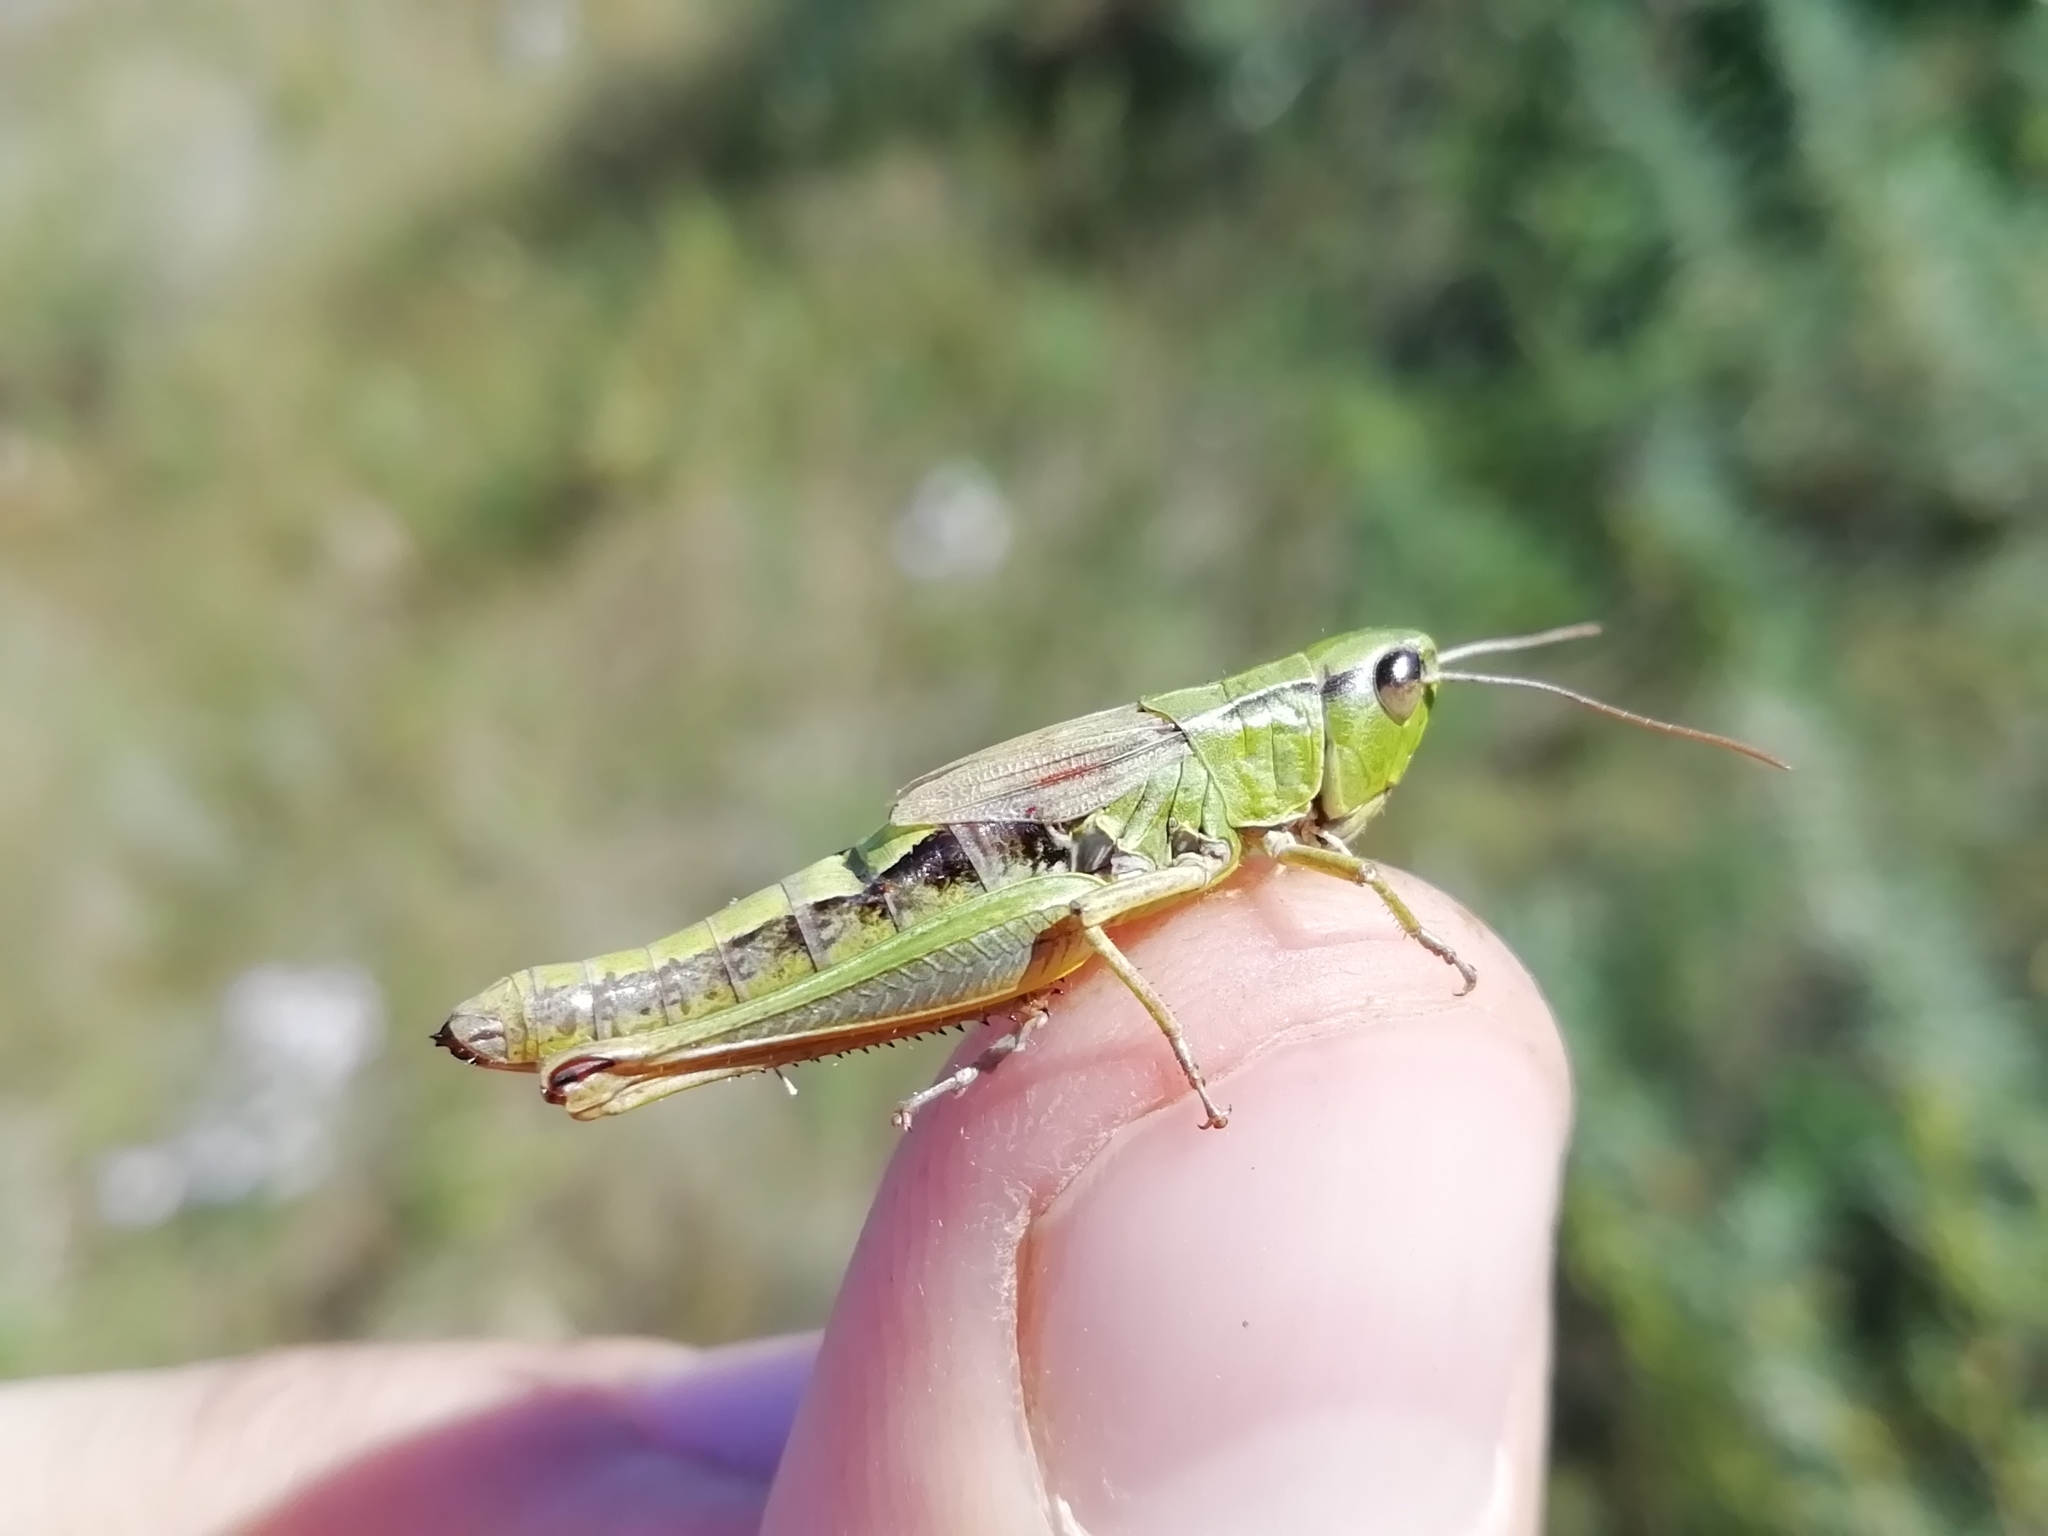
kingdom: Animalia
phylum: Arthropoda
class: Insecta
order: Orthoptera
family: Acrididae
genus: Pseudochorthippus
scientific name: Pseudochorthippus parallelus
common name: Meadow grasshopper
